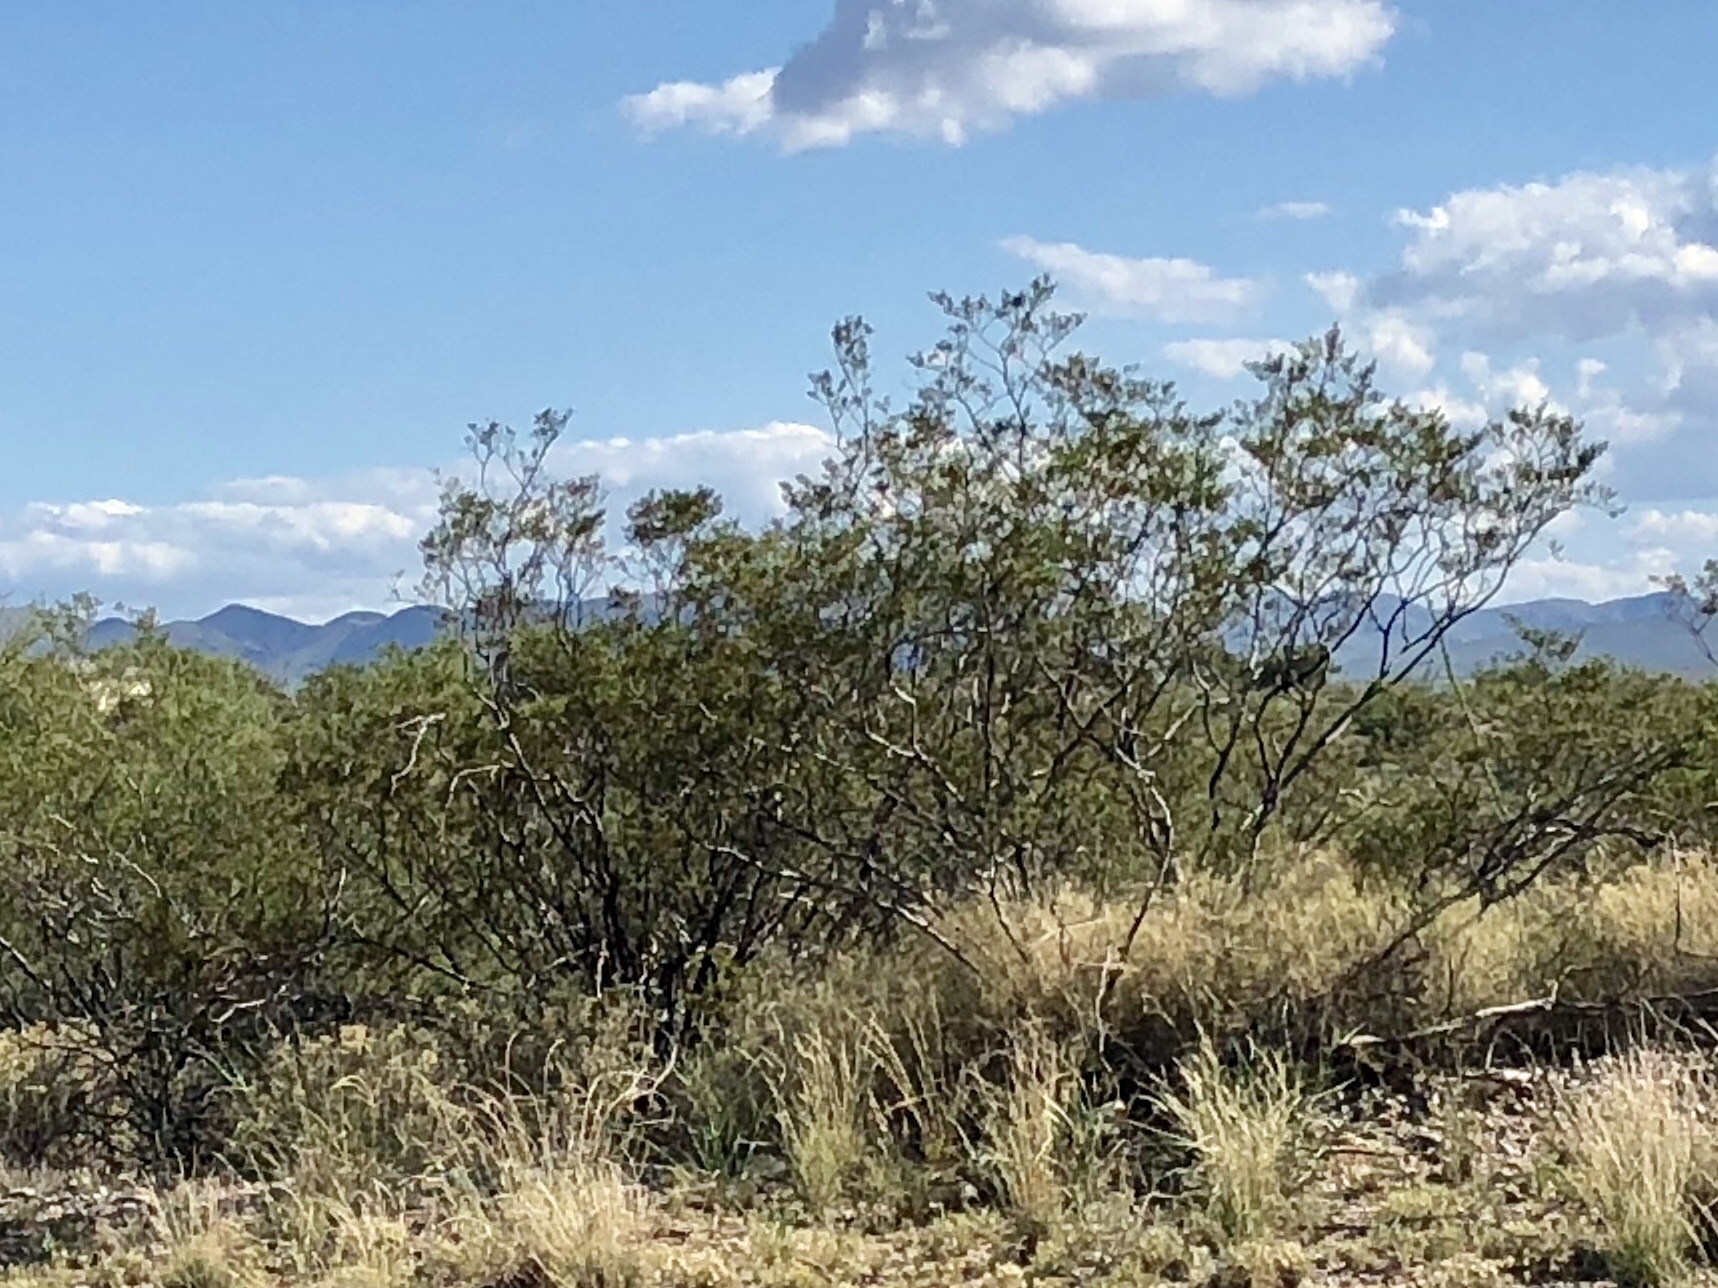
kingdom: Plantae
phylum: Tracheophyta
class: Magnoliopsida
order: Zygophyllales
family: Zygophyllaceae
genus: Larrea
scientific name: Larrea tridentata
